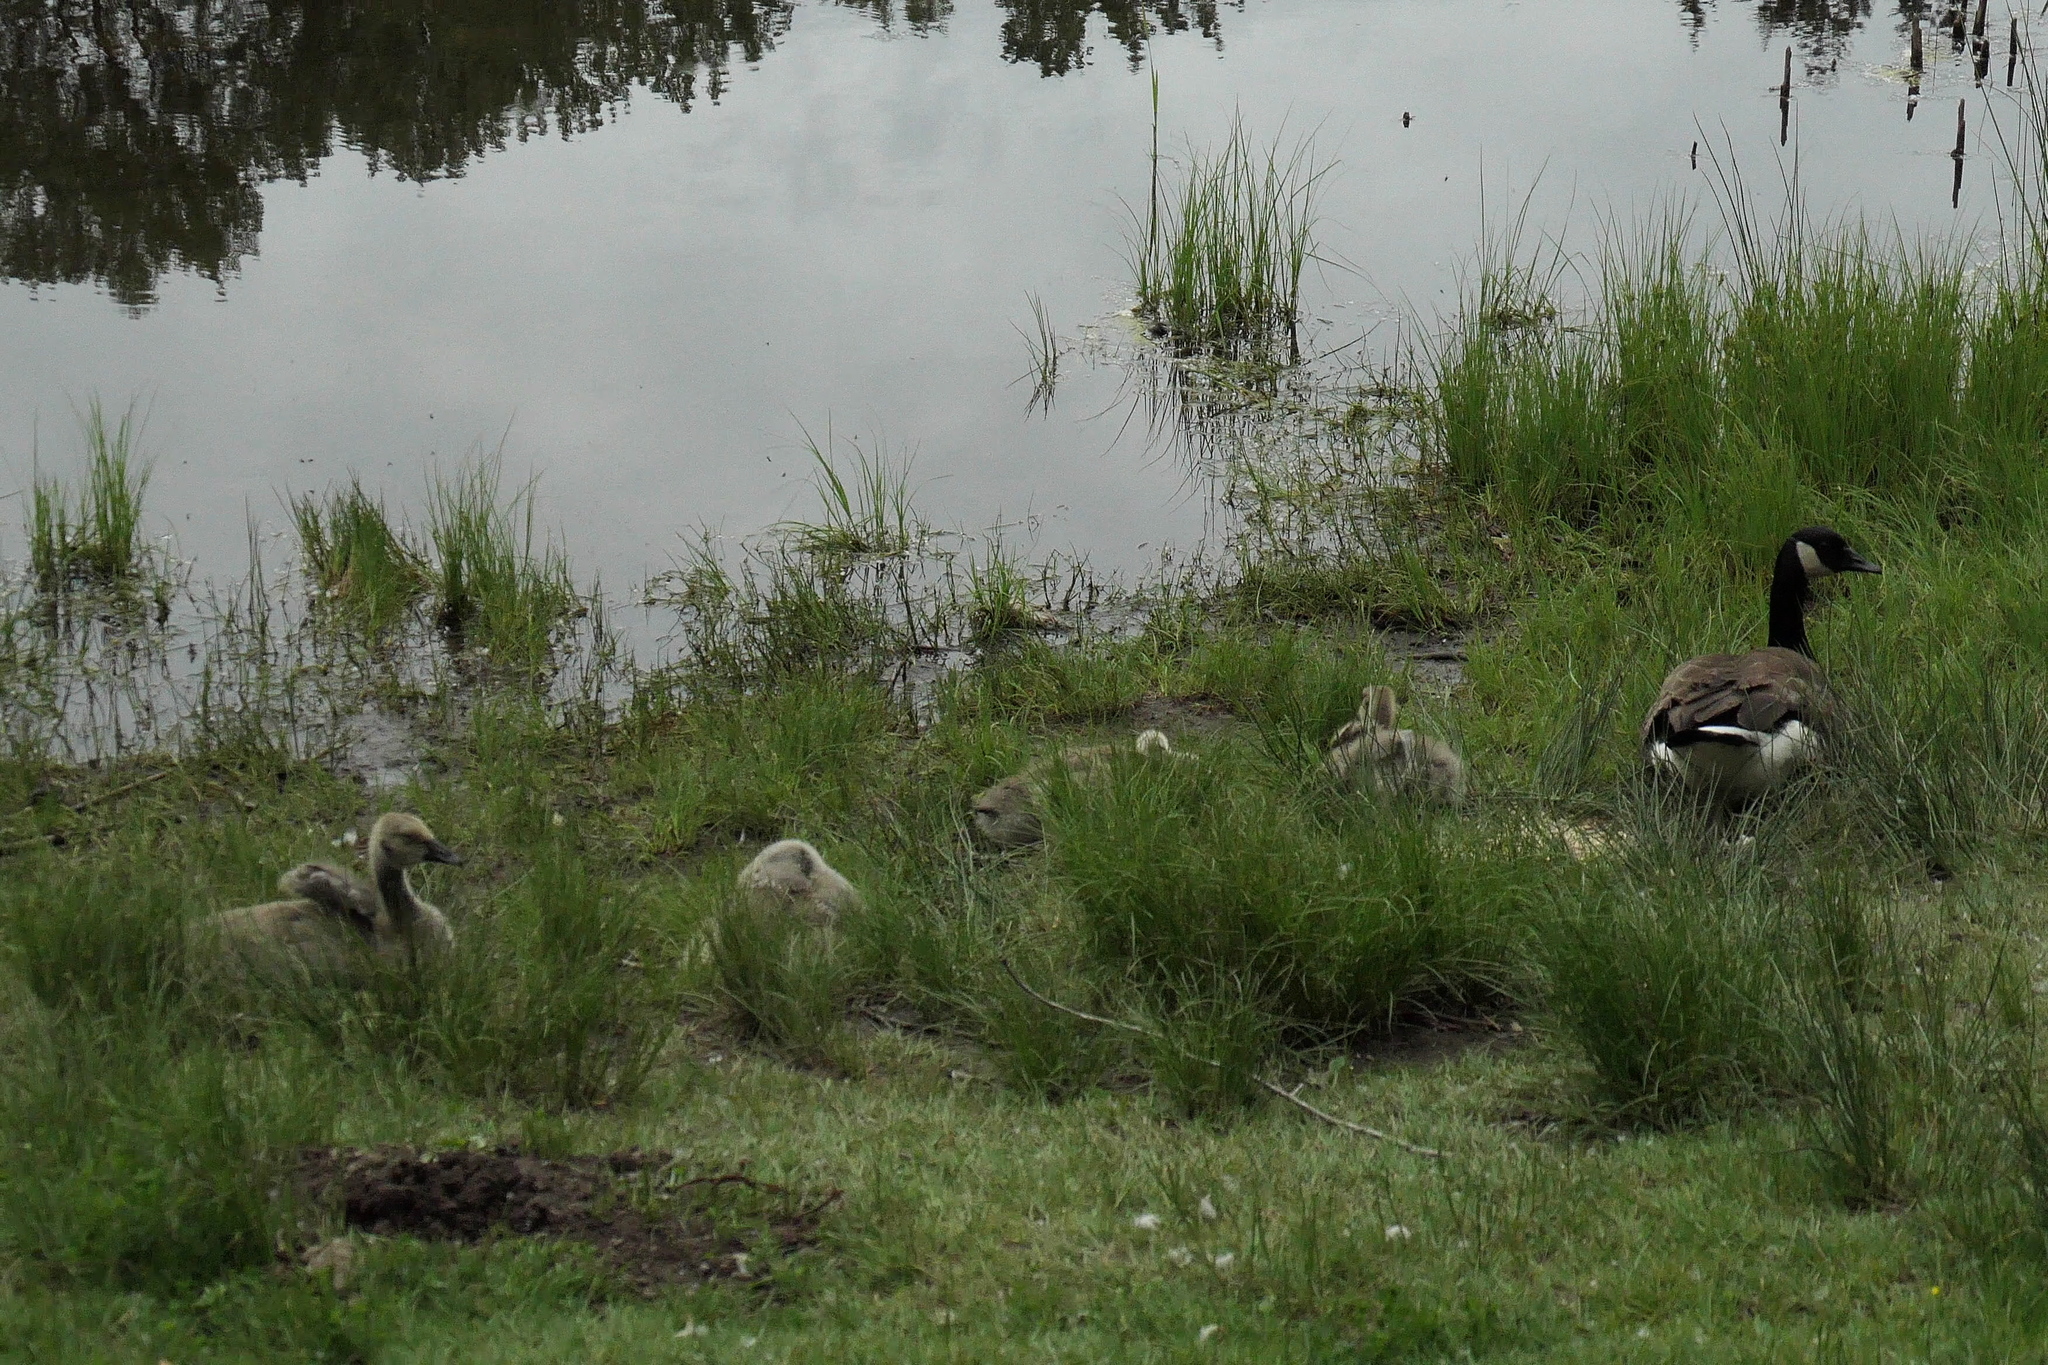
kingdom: Animalia
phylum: Chordata
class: Aves
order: Anseriformes
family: Anatidae
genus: Branta
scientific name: Branta canadensis
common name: Canada goose
